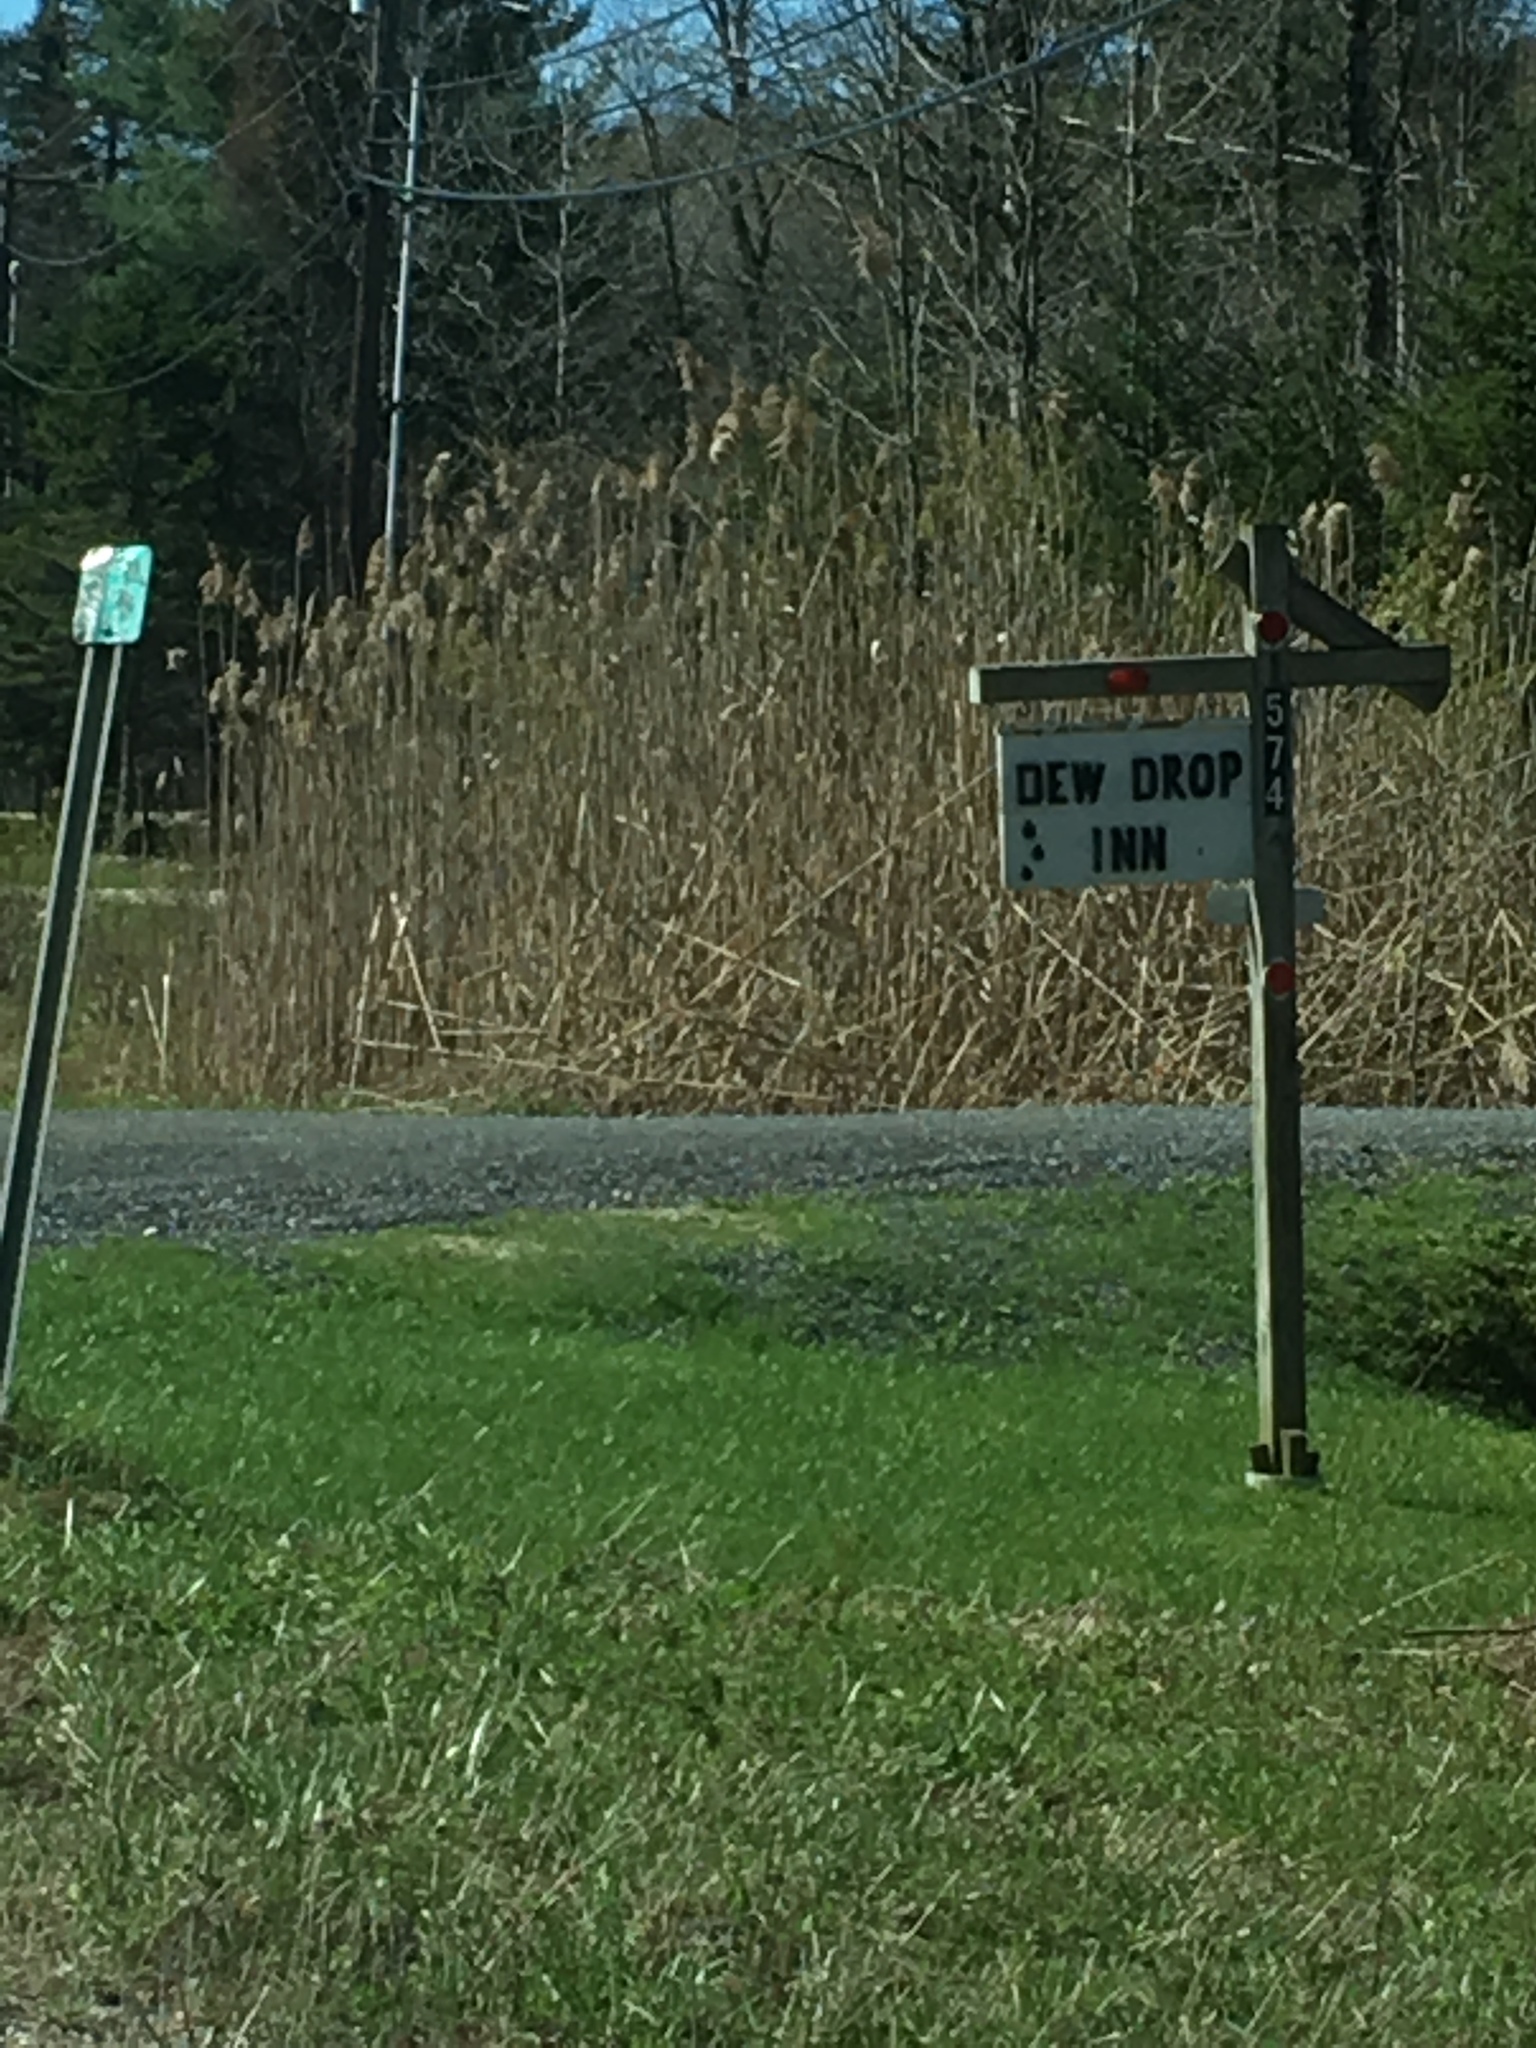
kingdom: Plantae
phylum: Tracheophyta
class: Liliopsida
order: Poales
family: Poaceae
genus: Phragmites
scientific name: Phragmites australis
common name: Common reed
